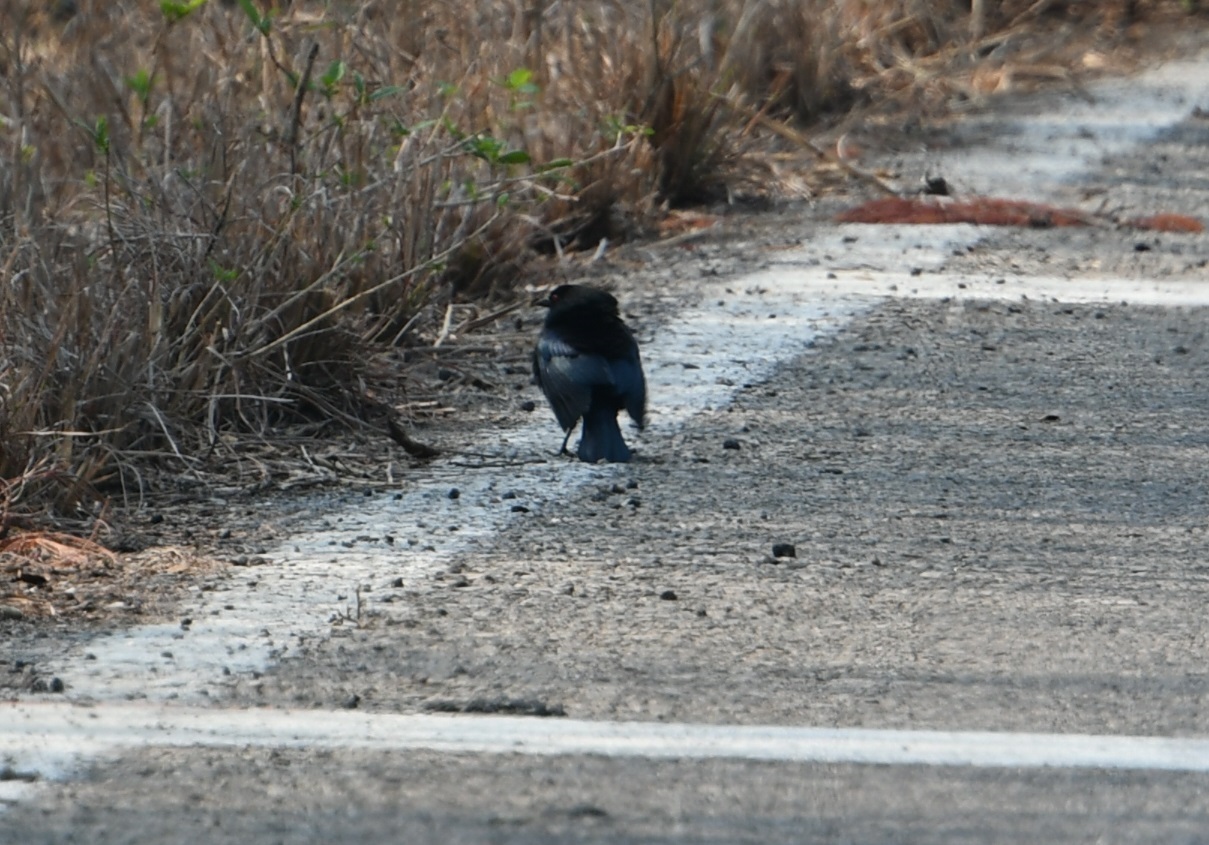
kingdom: Animalia
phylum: Chordata
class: Aves
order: Passeriformes
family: Icteridae
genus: Molothrus
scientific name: Molothrus aeneus
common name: Bronzed cowbird
